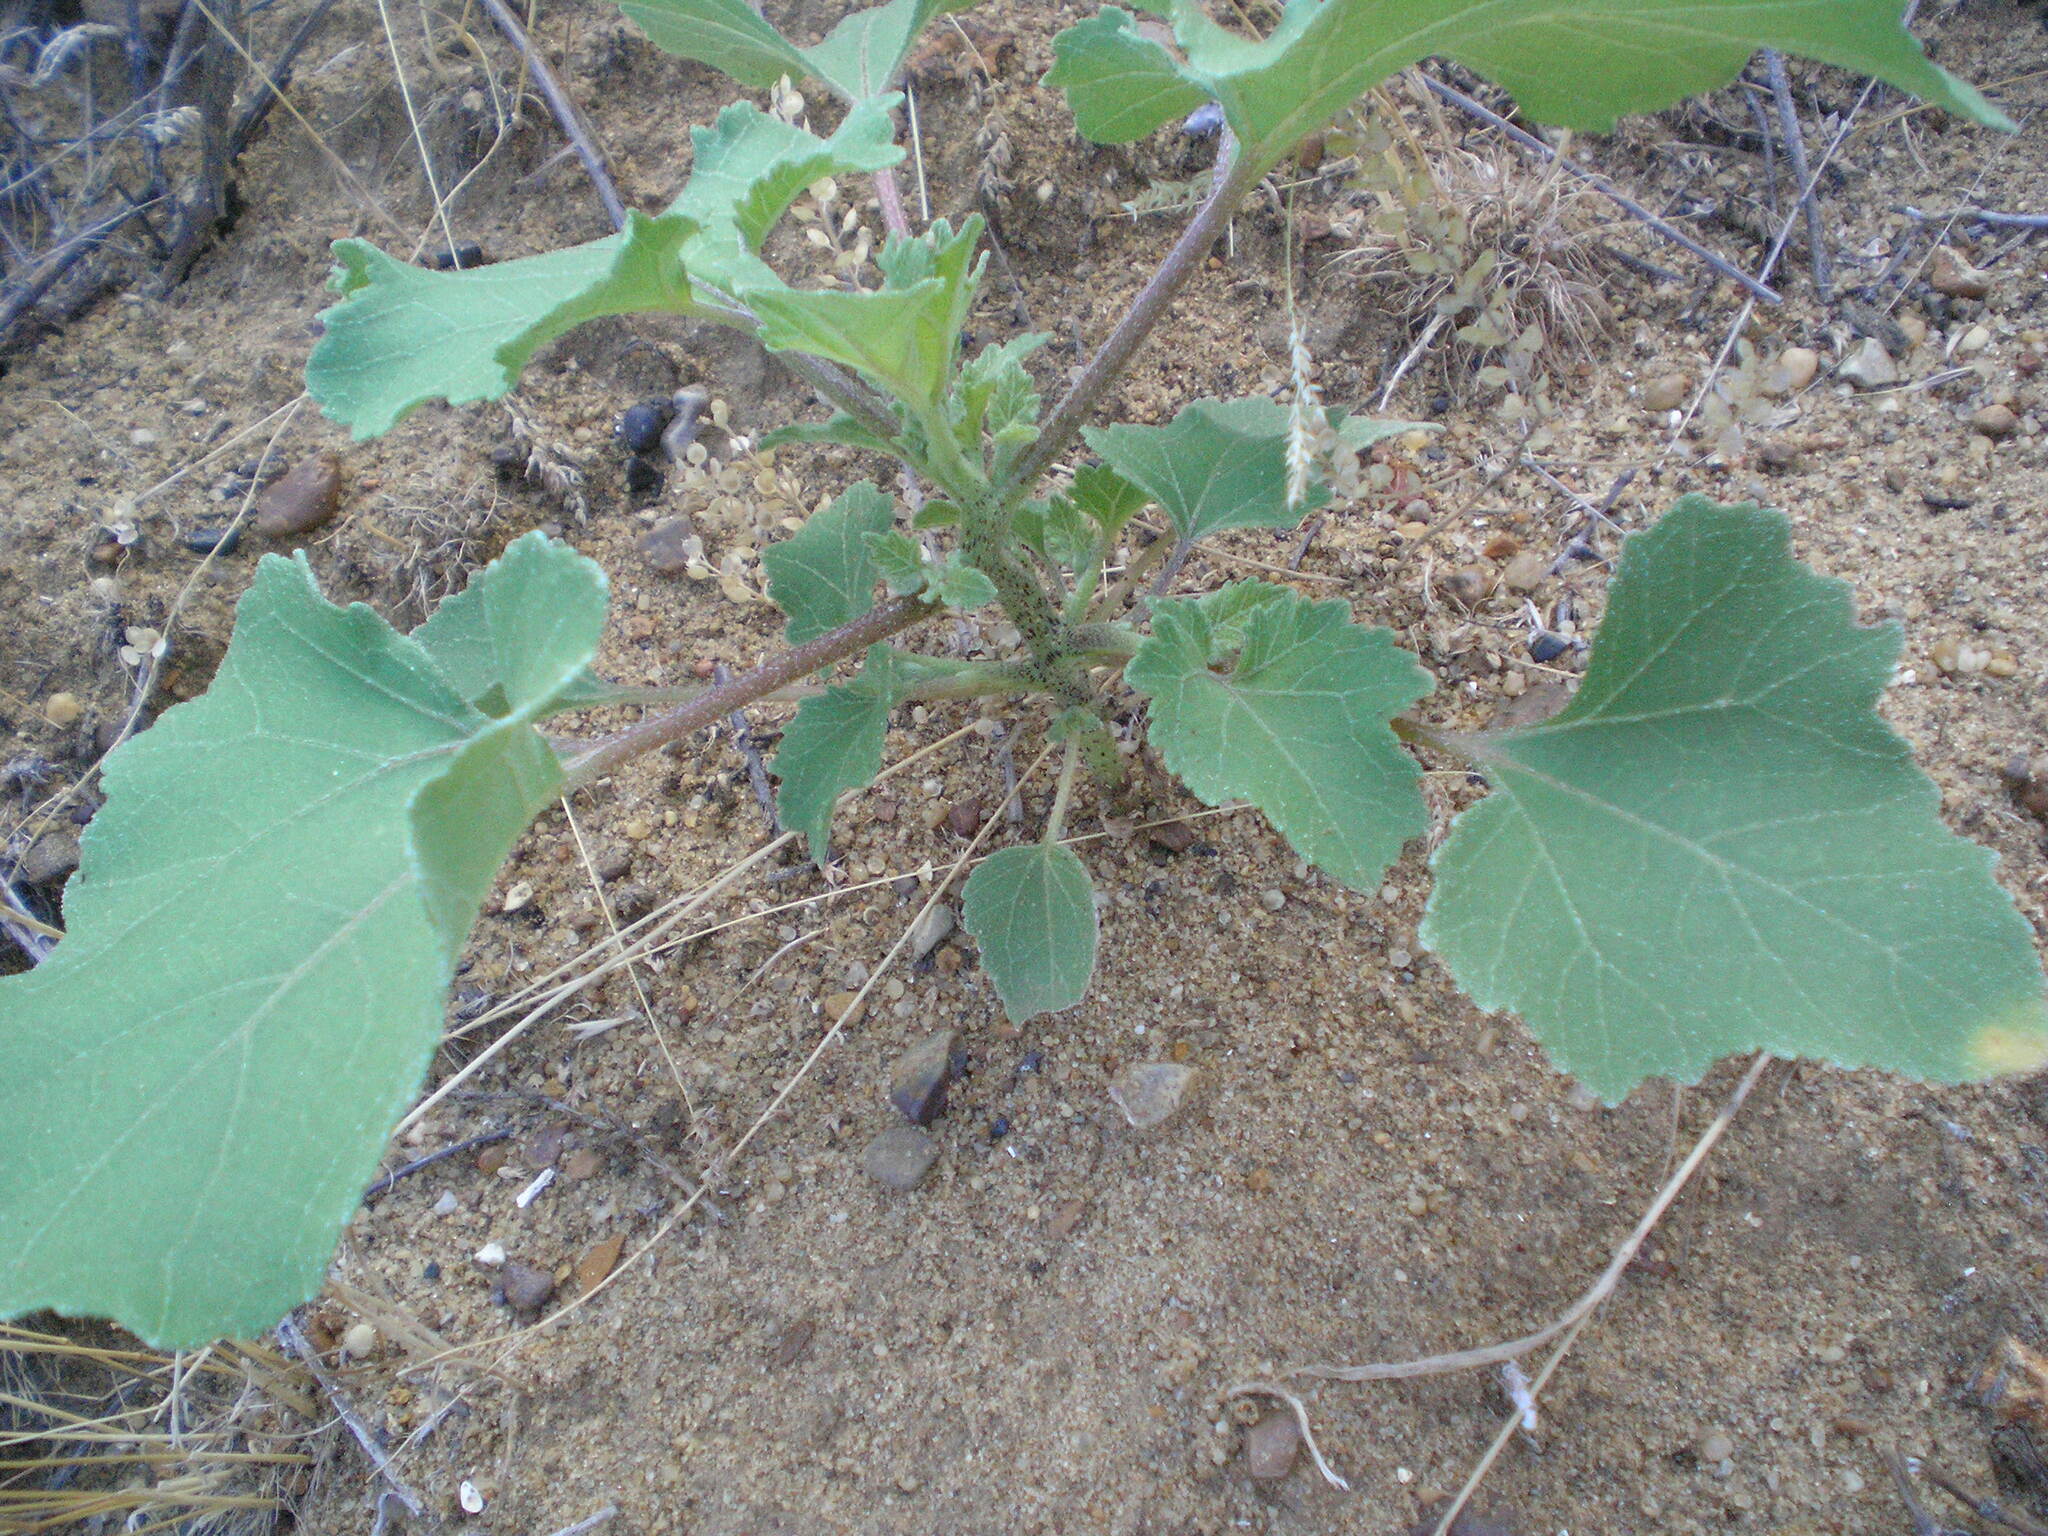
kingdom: Plantae
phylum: Tracheophyta
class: Magnoliopsida
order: Asterales
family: Asteraceae
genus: Xanthium
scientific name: Xanthium orientale
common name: Californian burr
